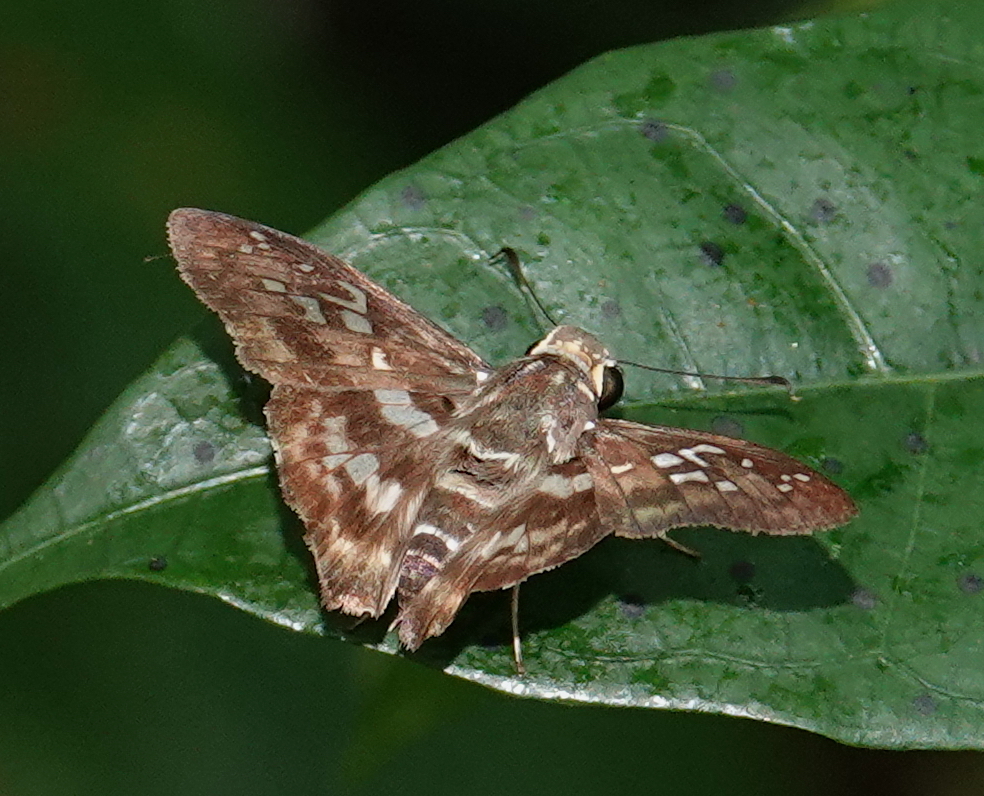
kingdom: Animalia
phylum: Arthropoda
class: Insecta
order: Lepidoptera
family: Hesperiidae
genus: Udranomia
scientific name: Udranomia kikkawai
